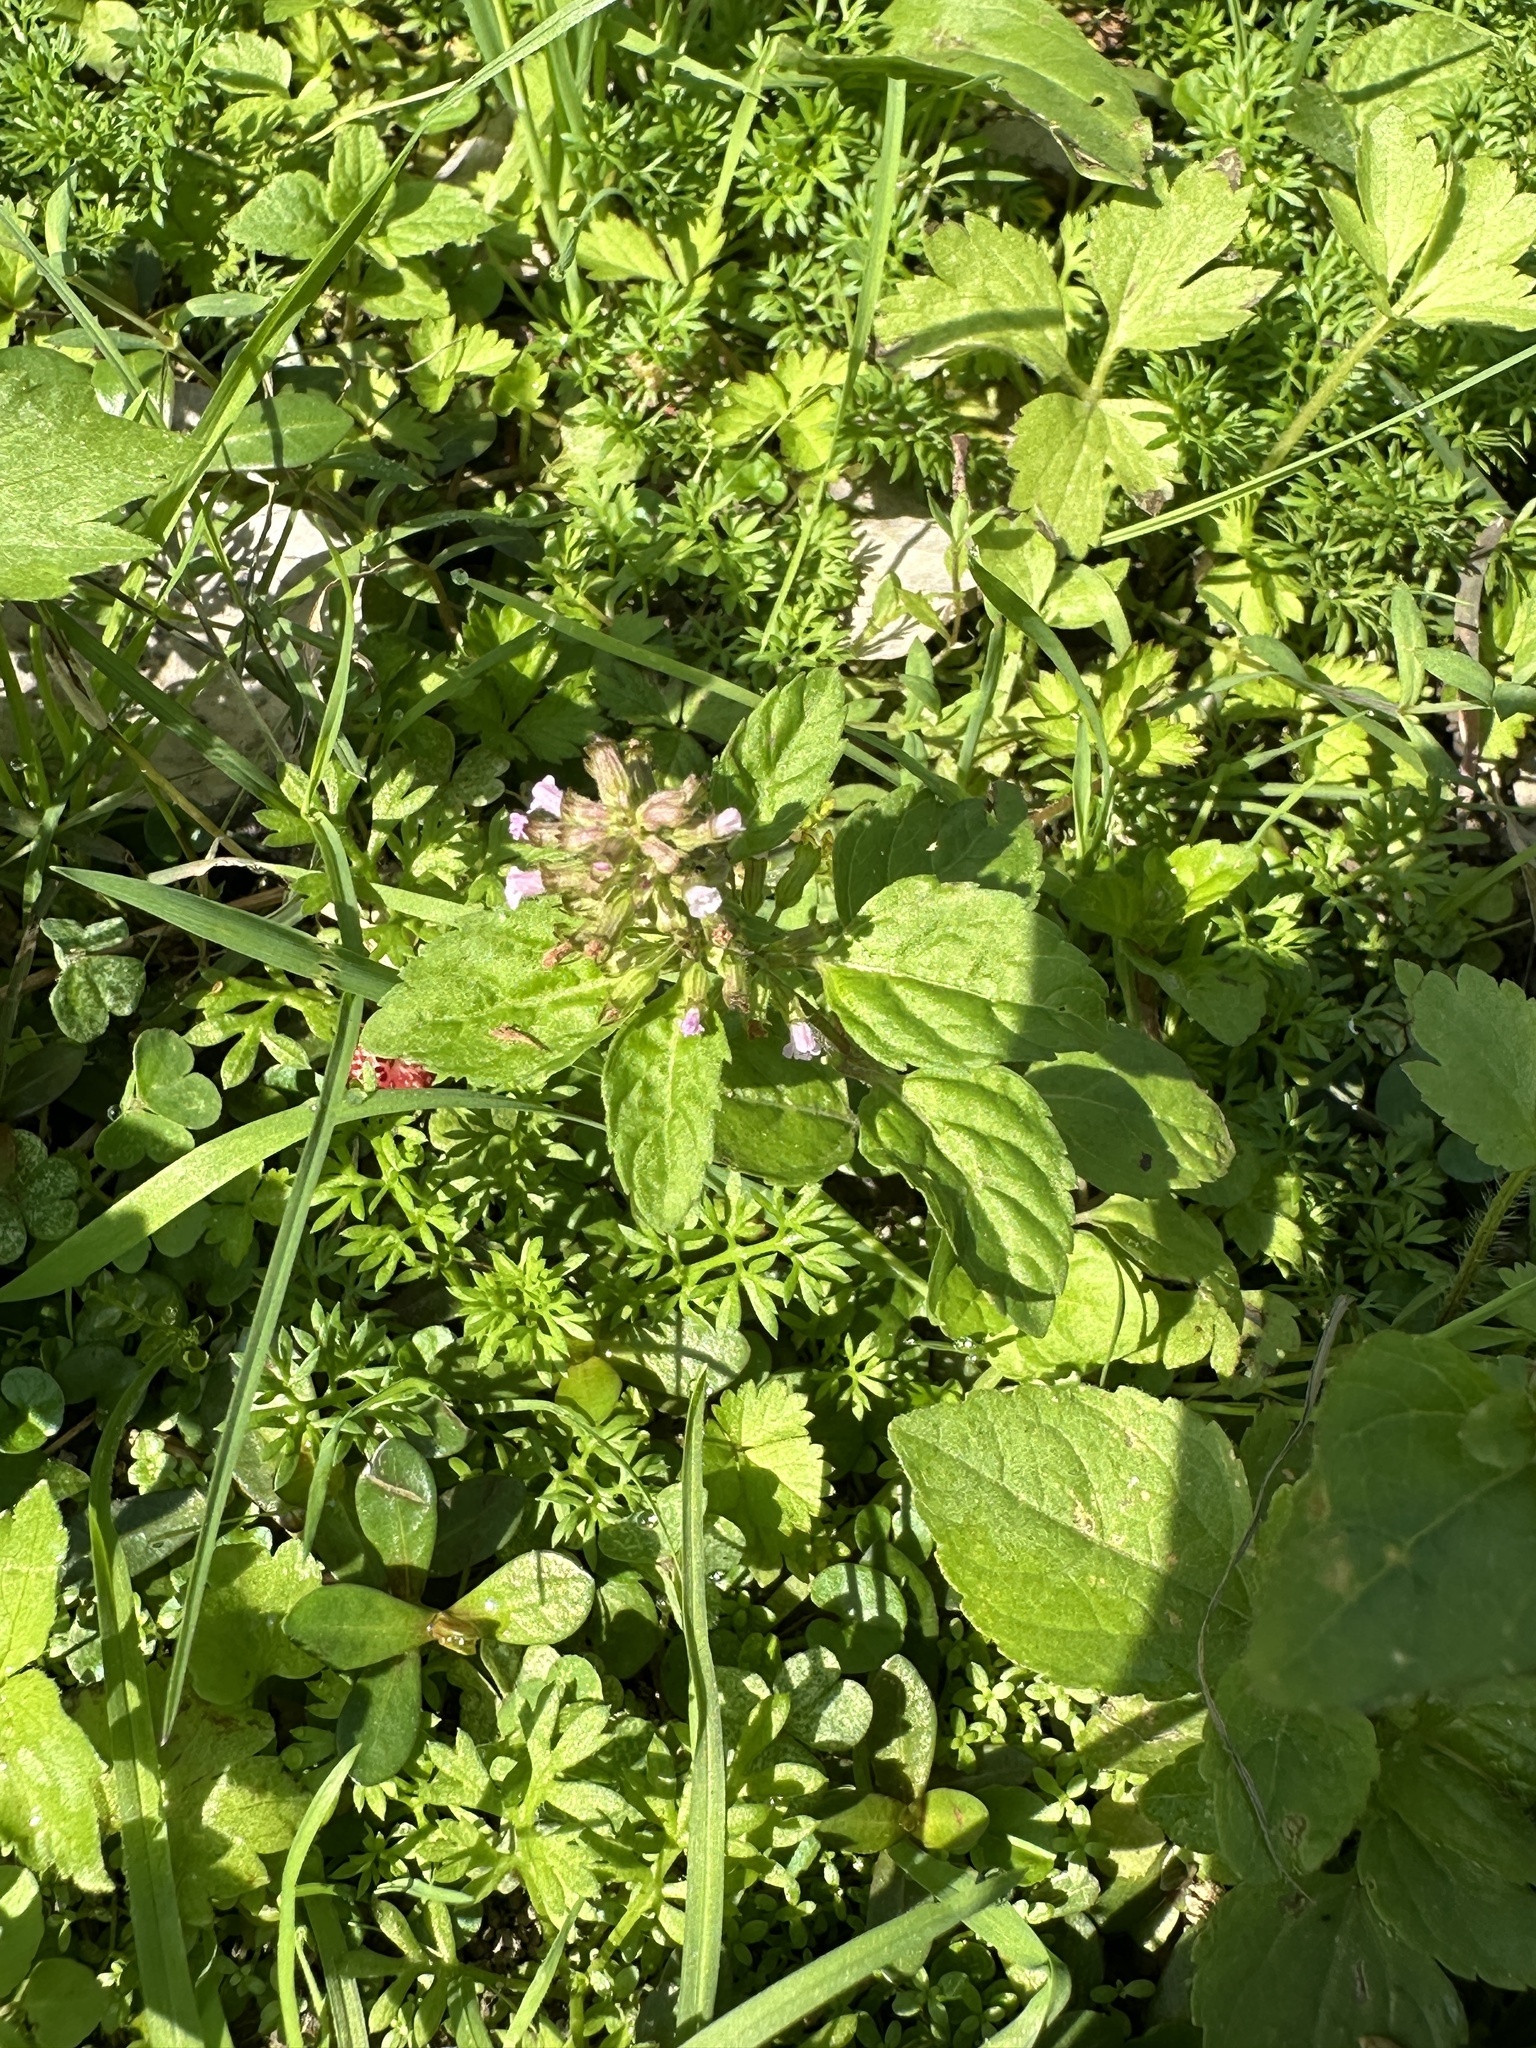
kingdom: Plantae
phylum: Tracheophyta
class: Magnoliopsida
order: Lamiales
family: Lamiaceae
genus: Clinopodium
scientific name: Clinopodium gracile
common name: Slender wild basil
